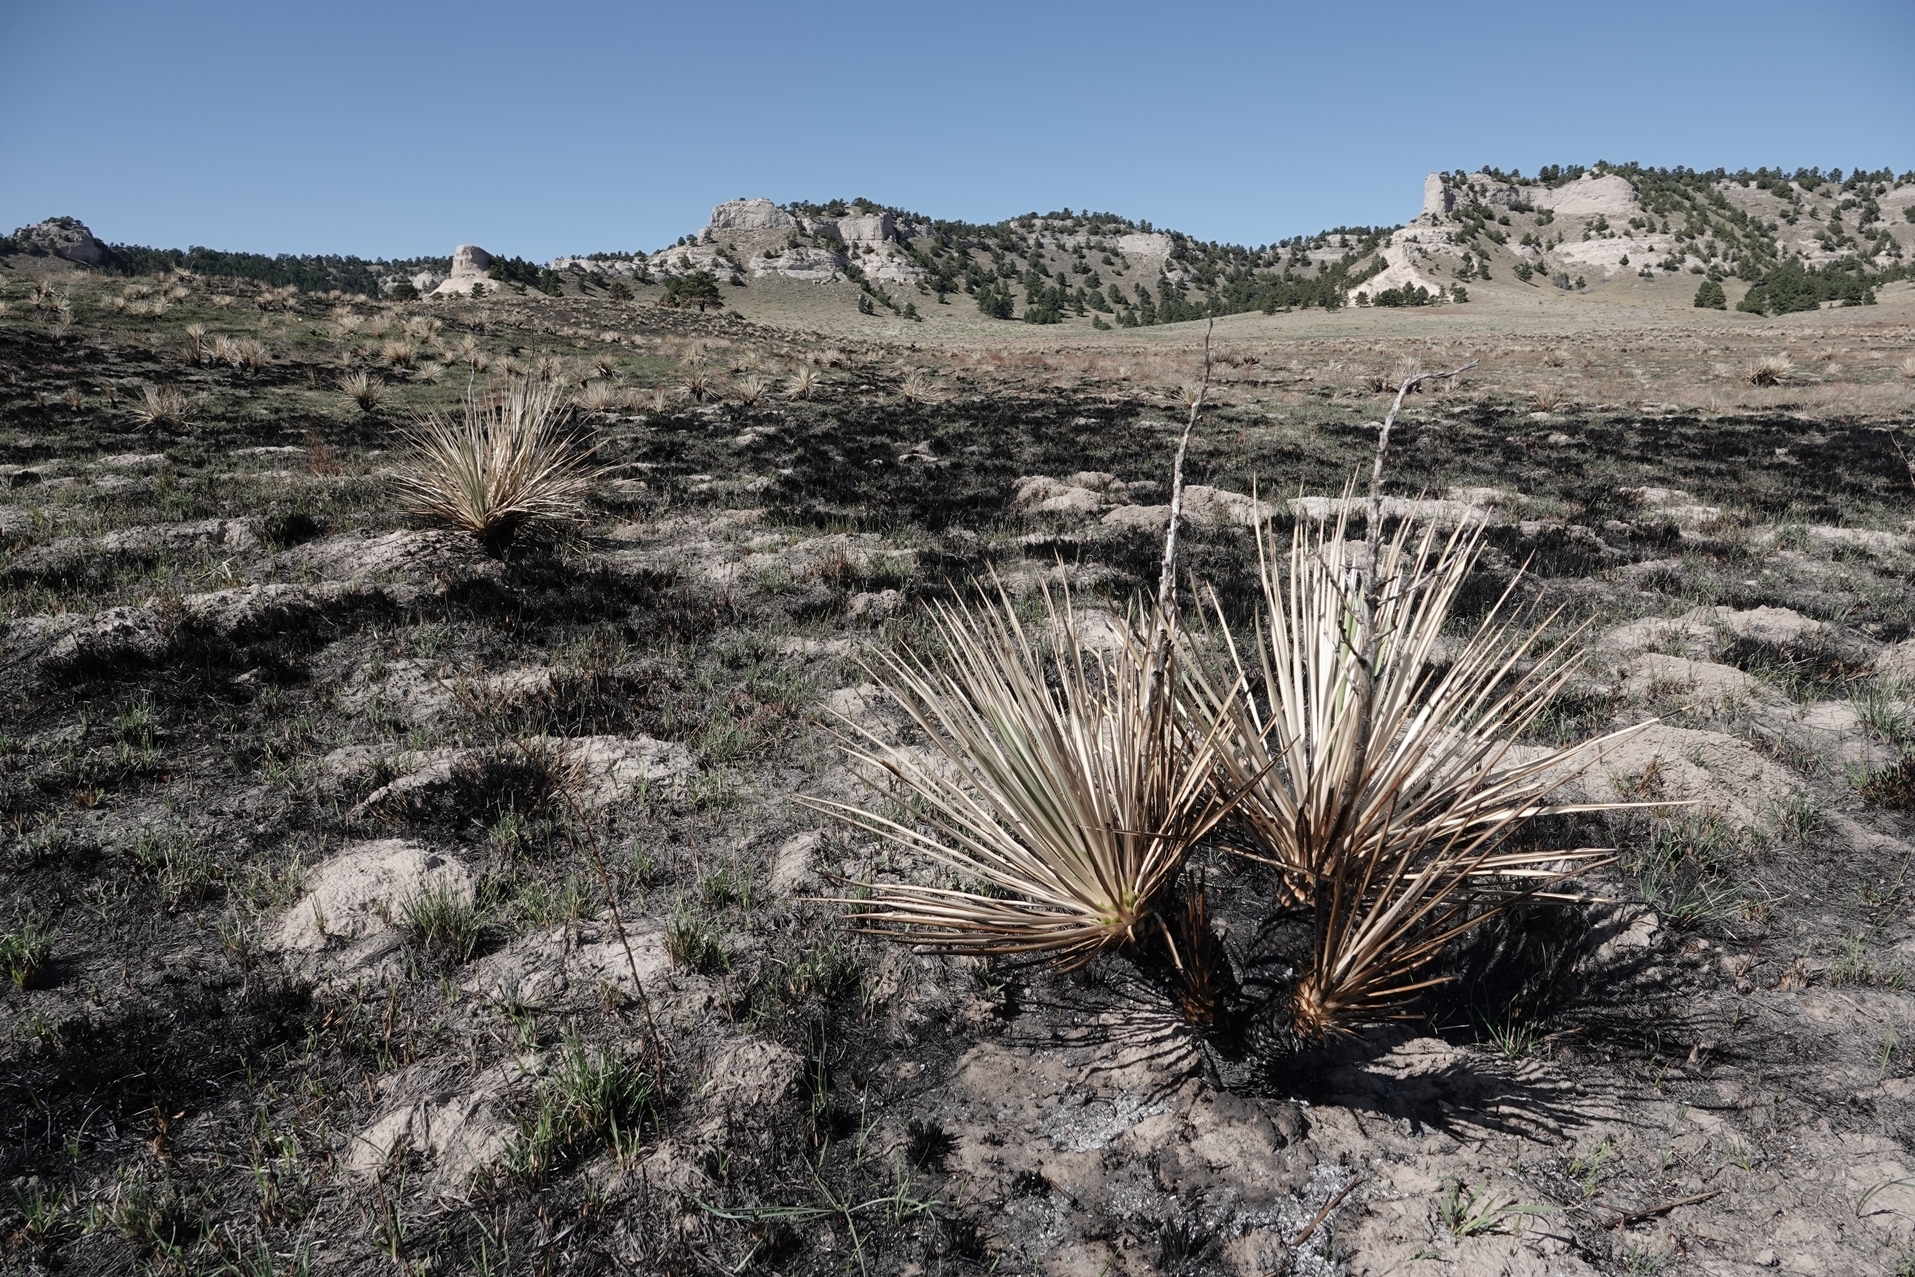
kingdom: Plantae
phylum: Tracheophyta
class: Liliopsida
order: Asparagales
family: Asparagaceae
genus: Yucca
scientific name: Yucca glauca
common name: Great plains yucca
